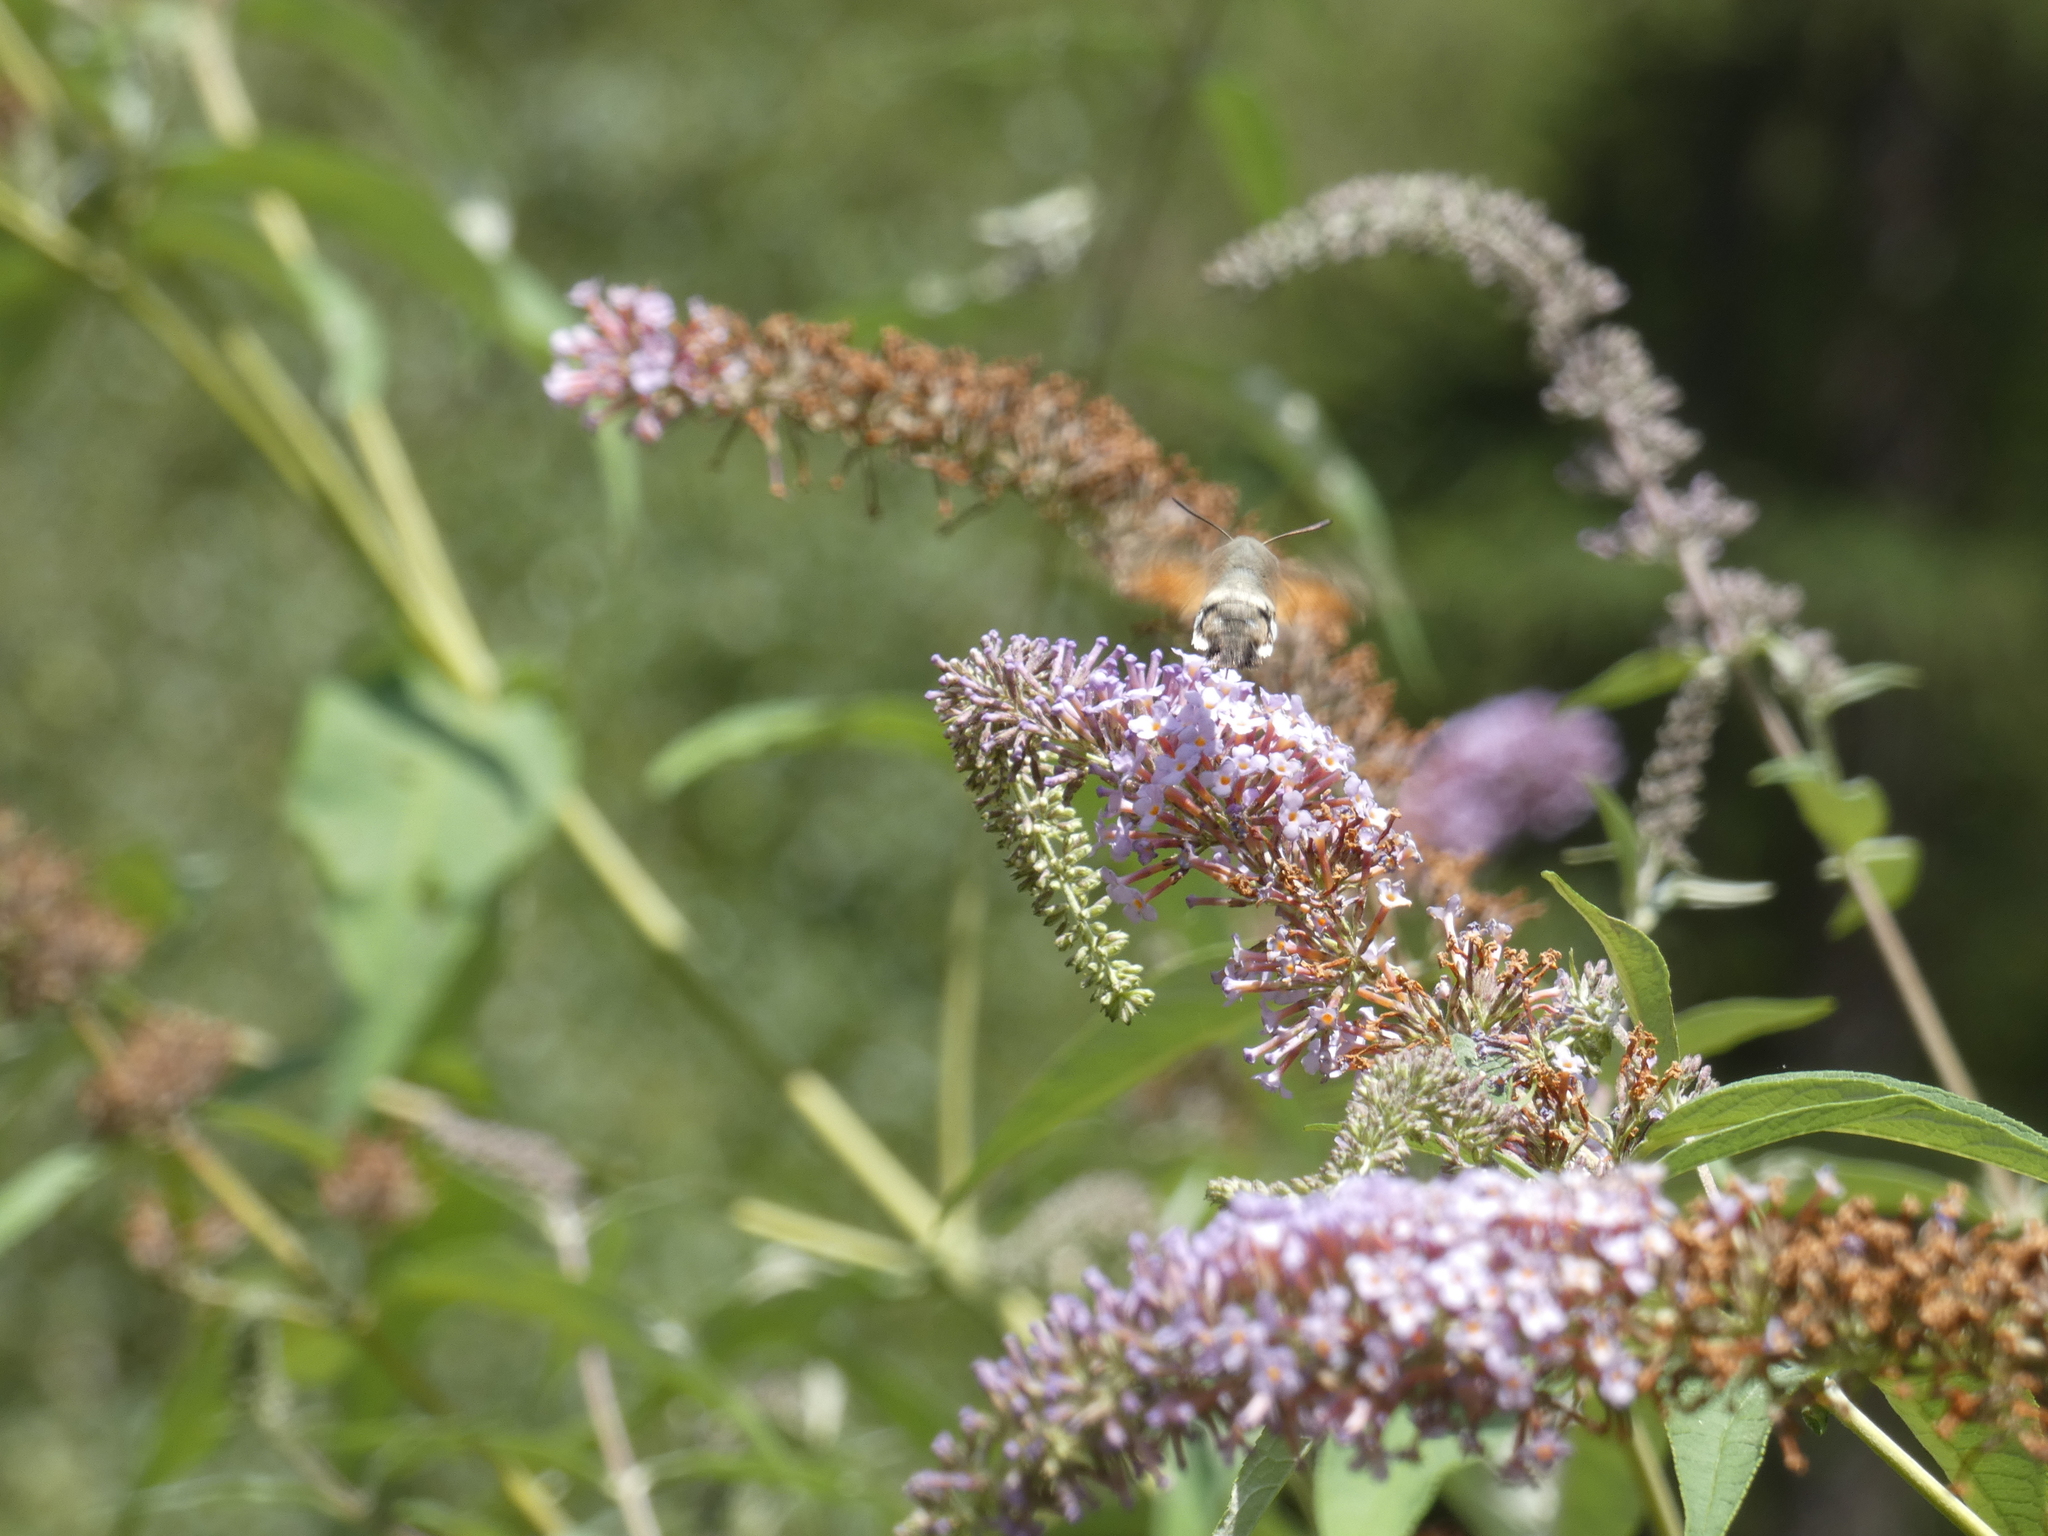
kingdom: Animalia
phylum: Arthropoda
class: Insecta
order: Lepidoptera
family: Sphingidae
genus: Macroglossum
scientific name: Macroglossum stellatarum
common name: Humming-bird hawk-moth
